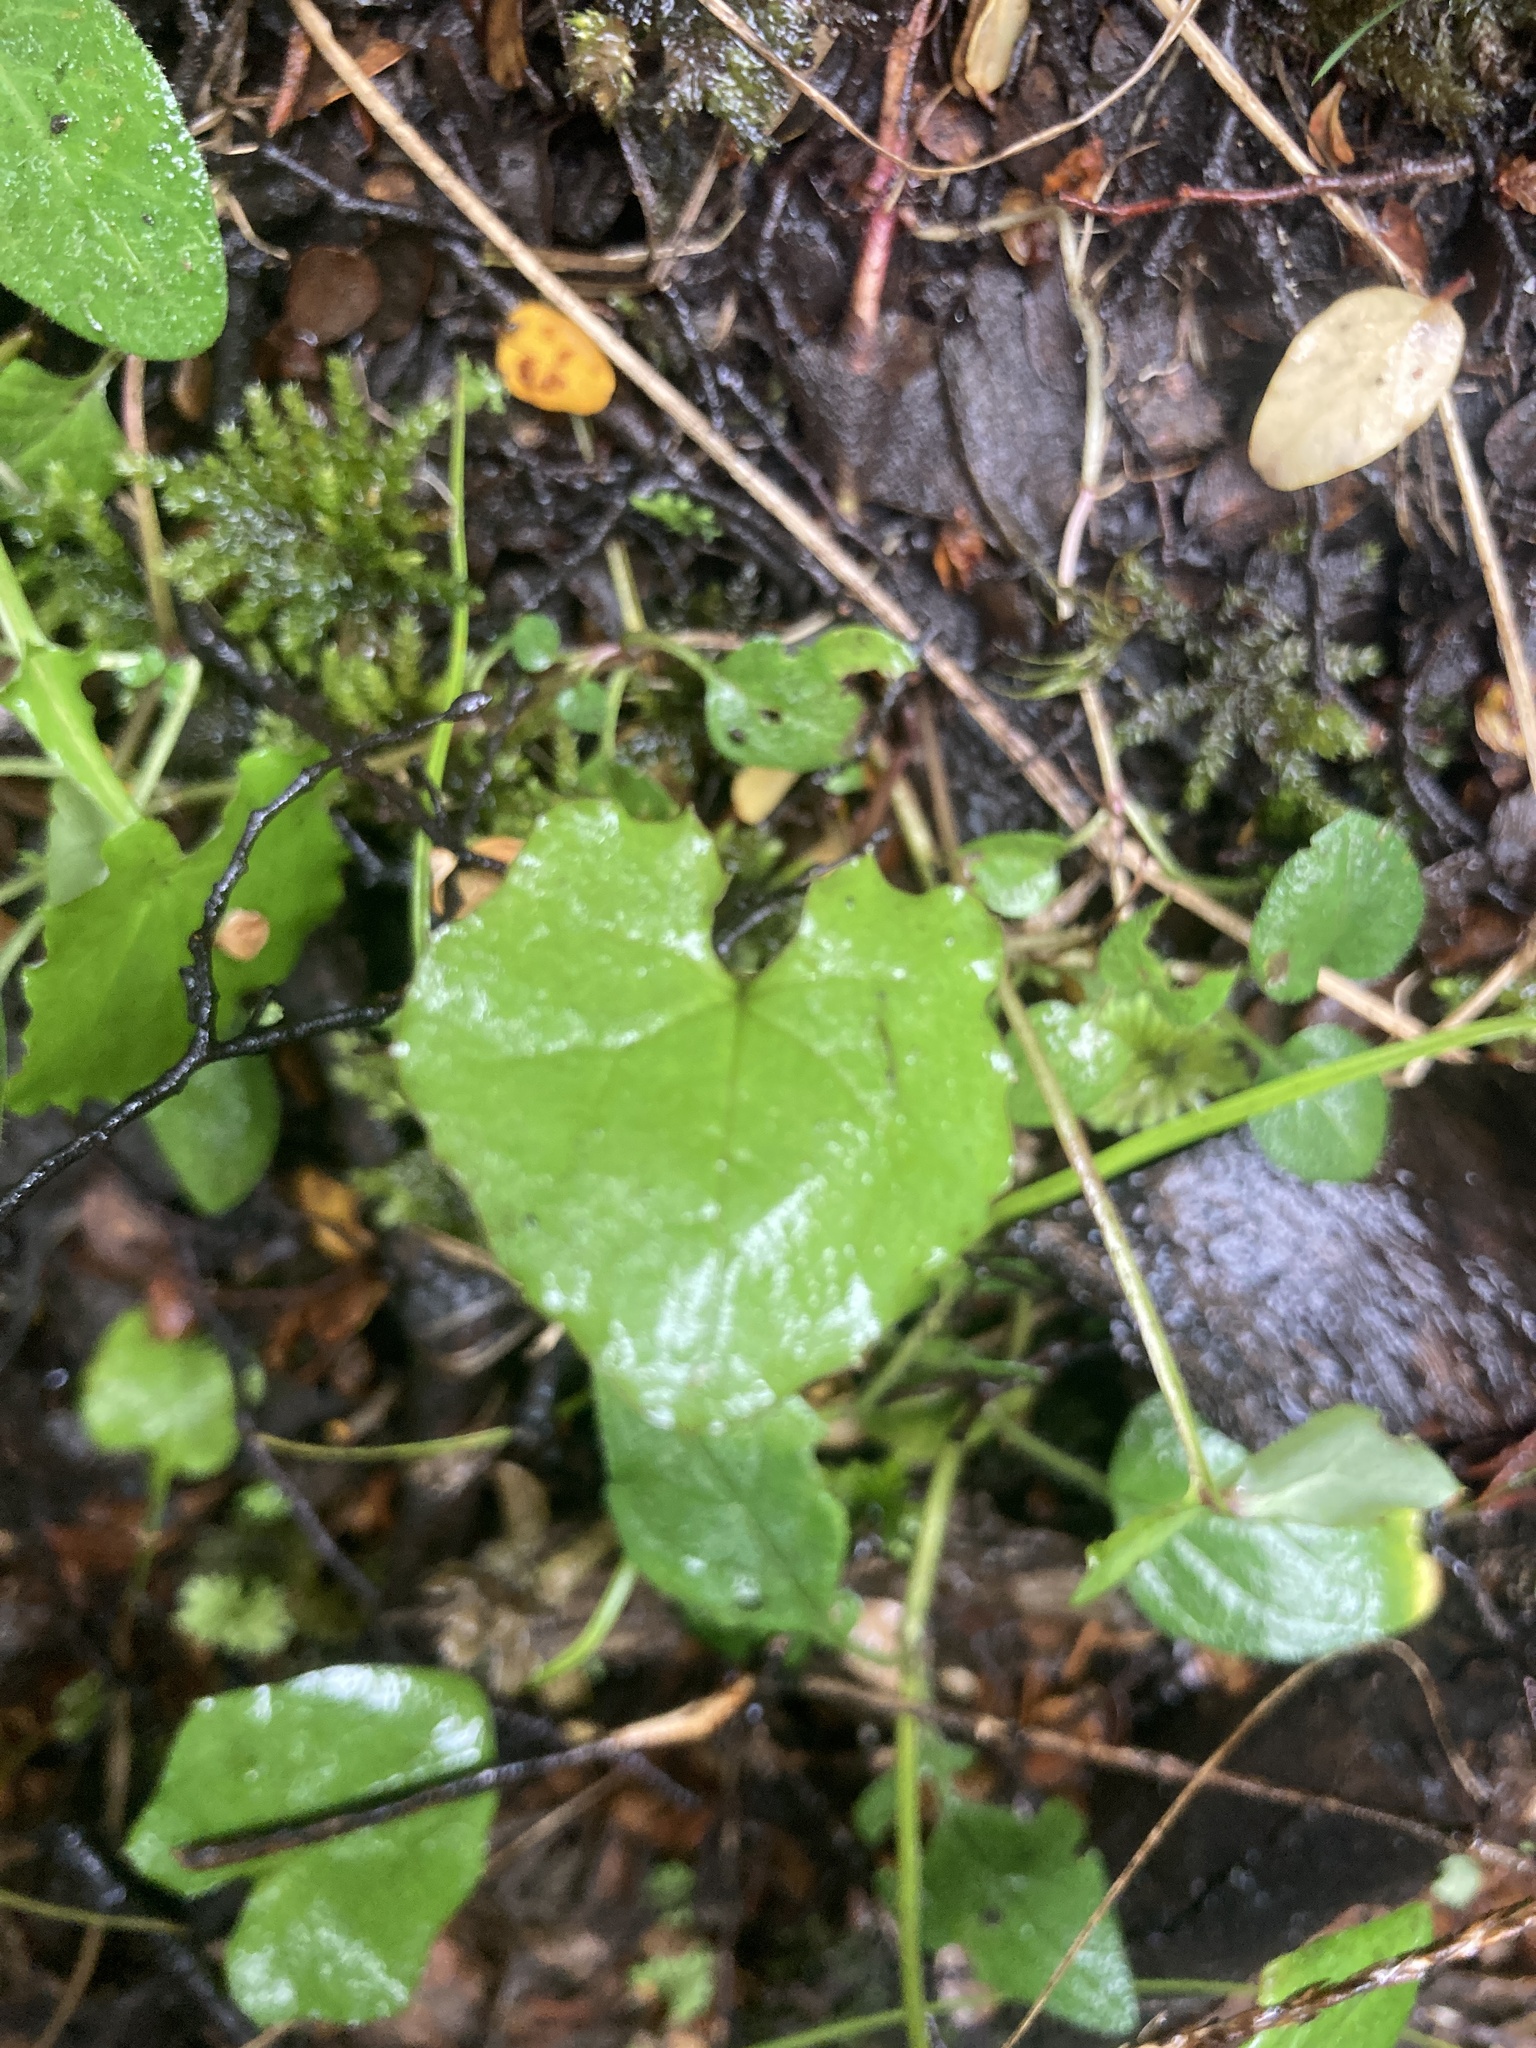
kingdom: Plantae
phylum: Tracheophyta
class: Magnoliopsida
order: Asterales
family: Asteraceae
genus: Mycelis
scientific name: Mycelis muralis
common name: Wall lettuce
